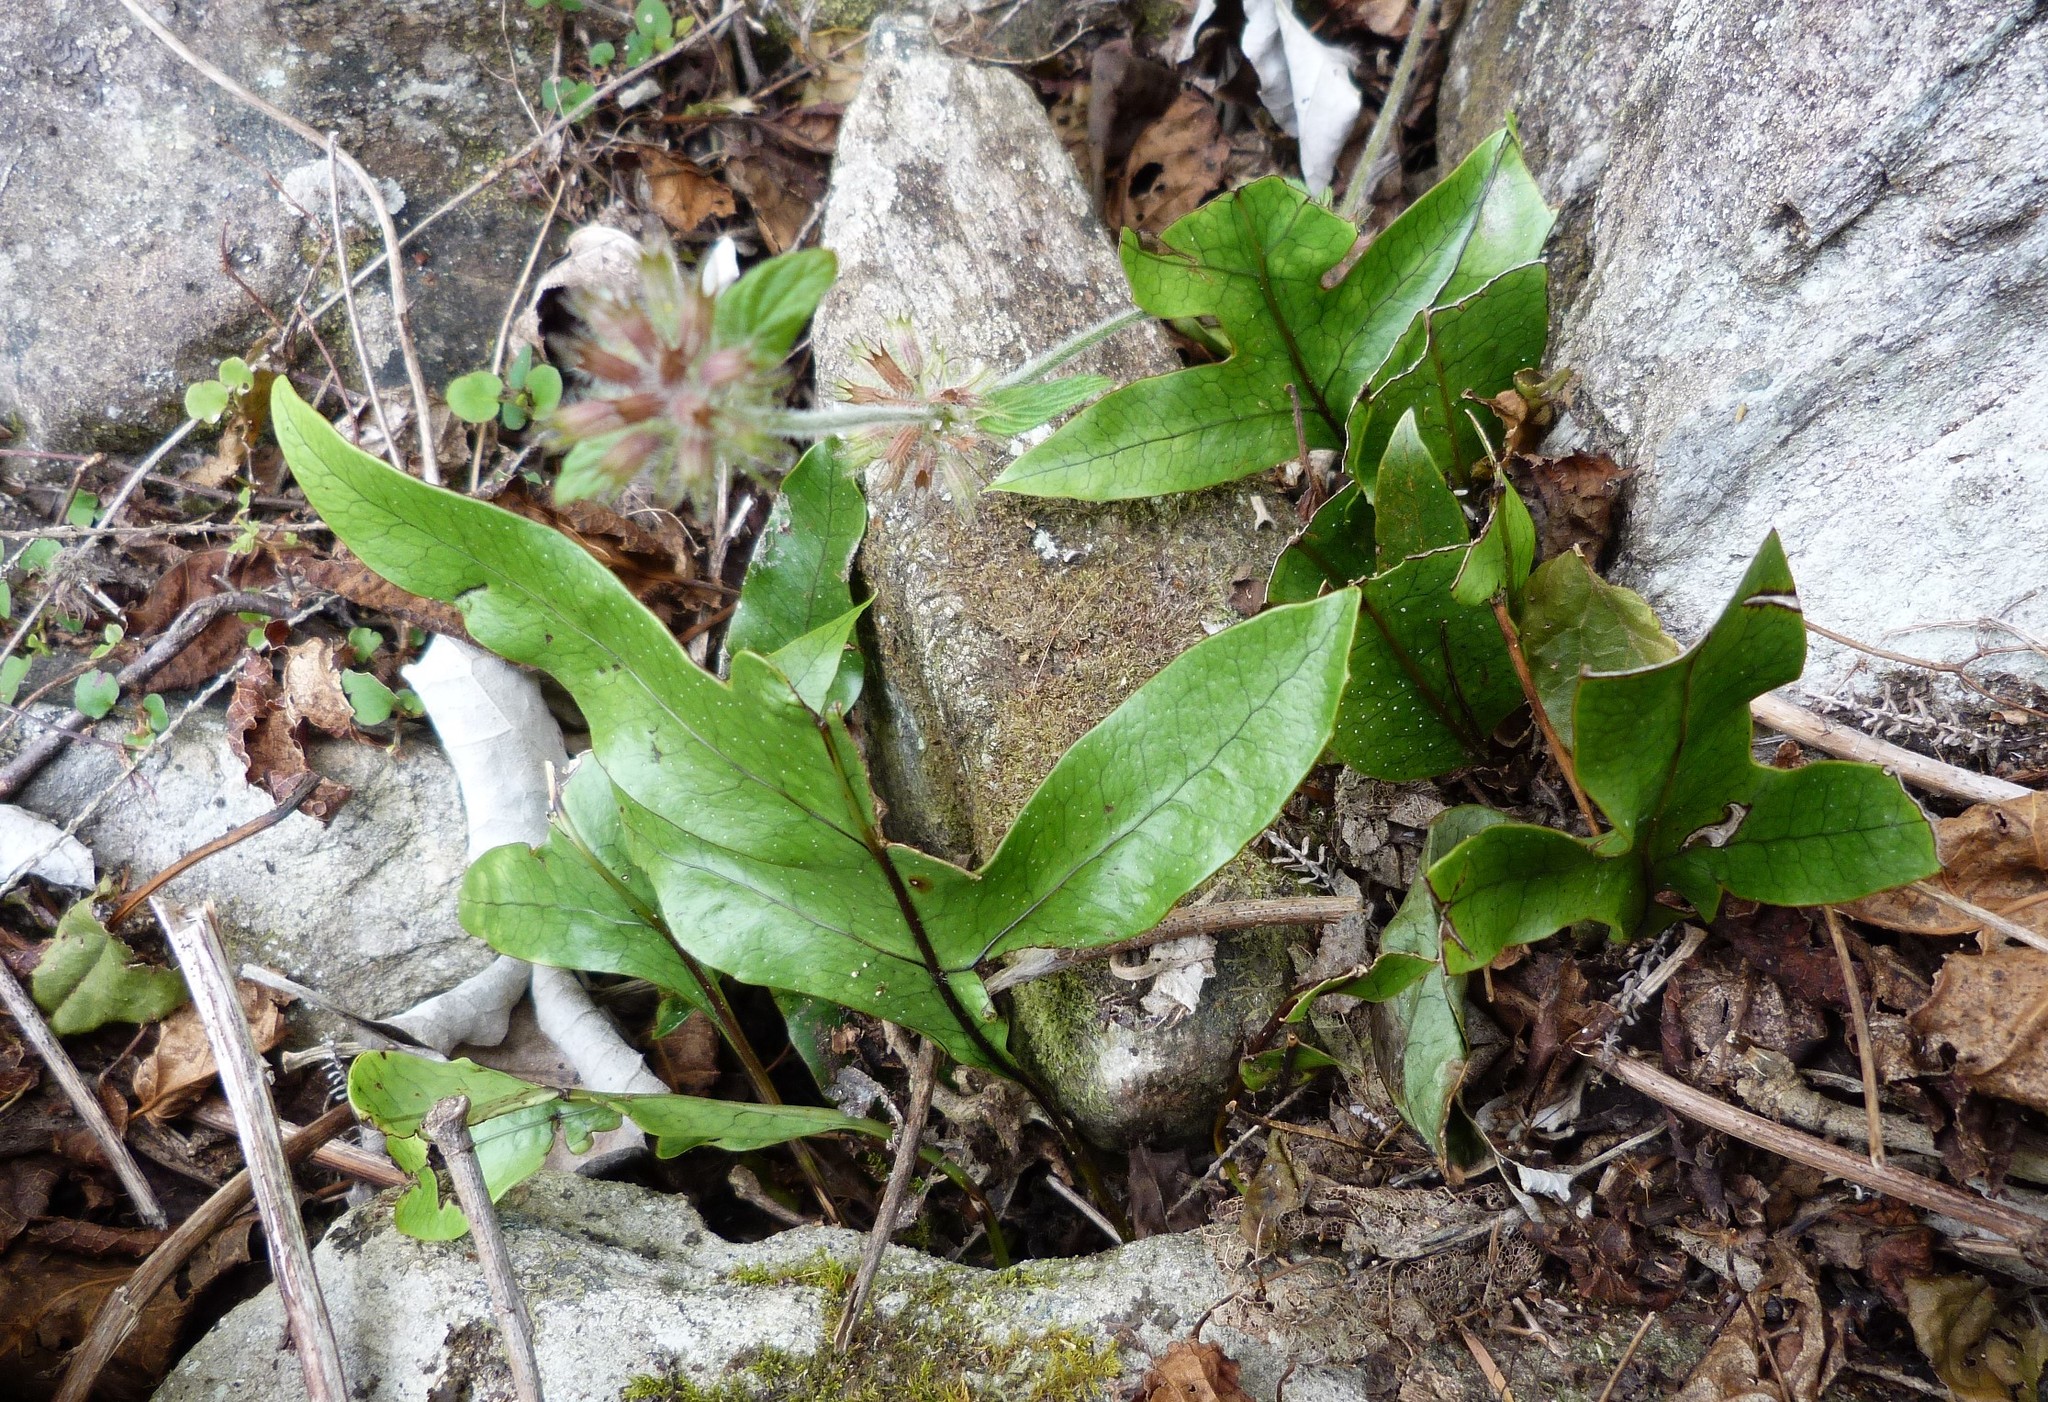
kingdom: Plantae
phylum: Tracheophyta
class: Polypodiopsida
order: Polypodiales
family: Polypodiaceae
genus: Lecanopteris
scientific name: Lecanopteris pustulata
